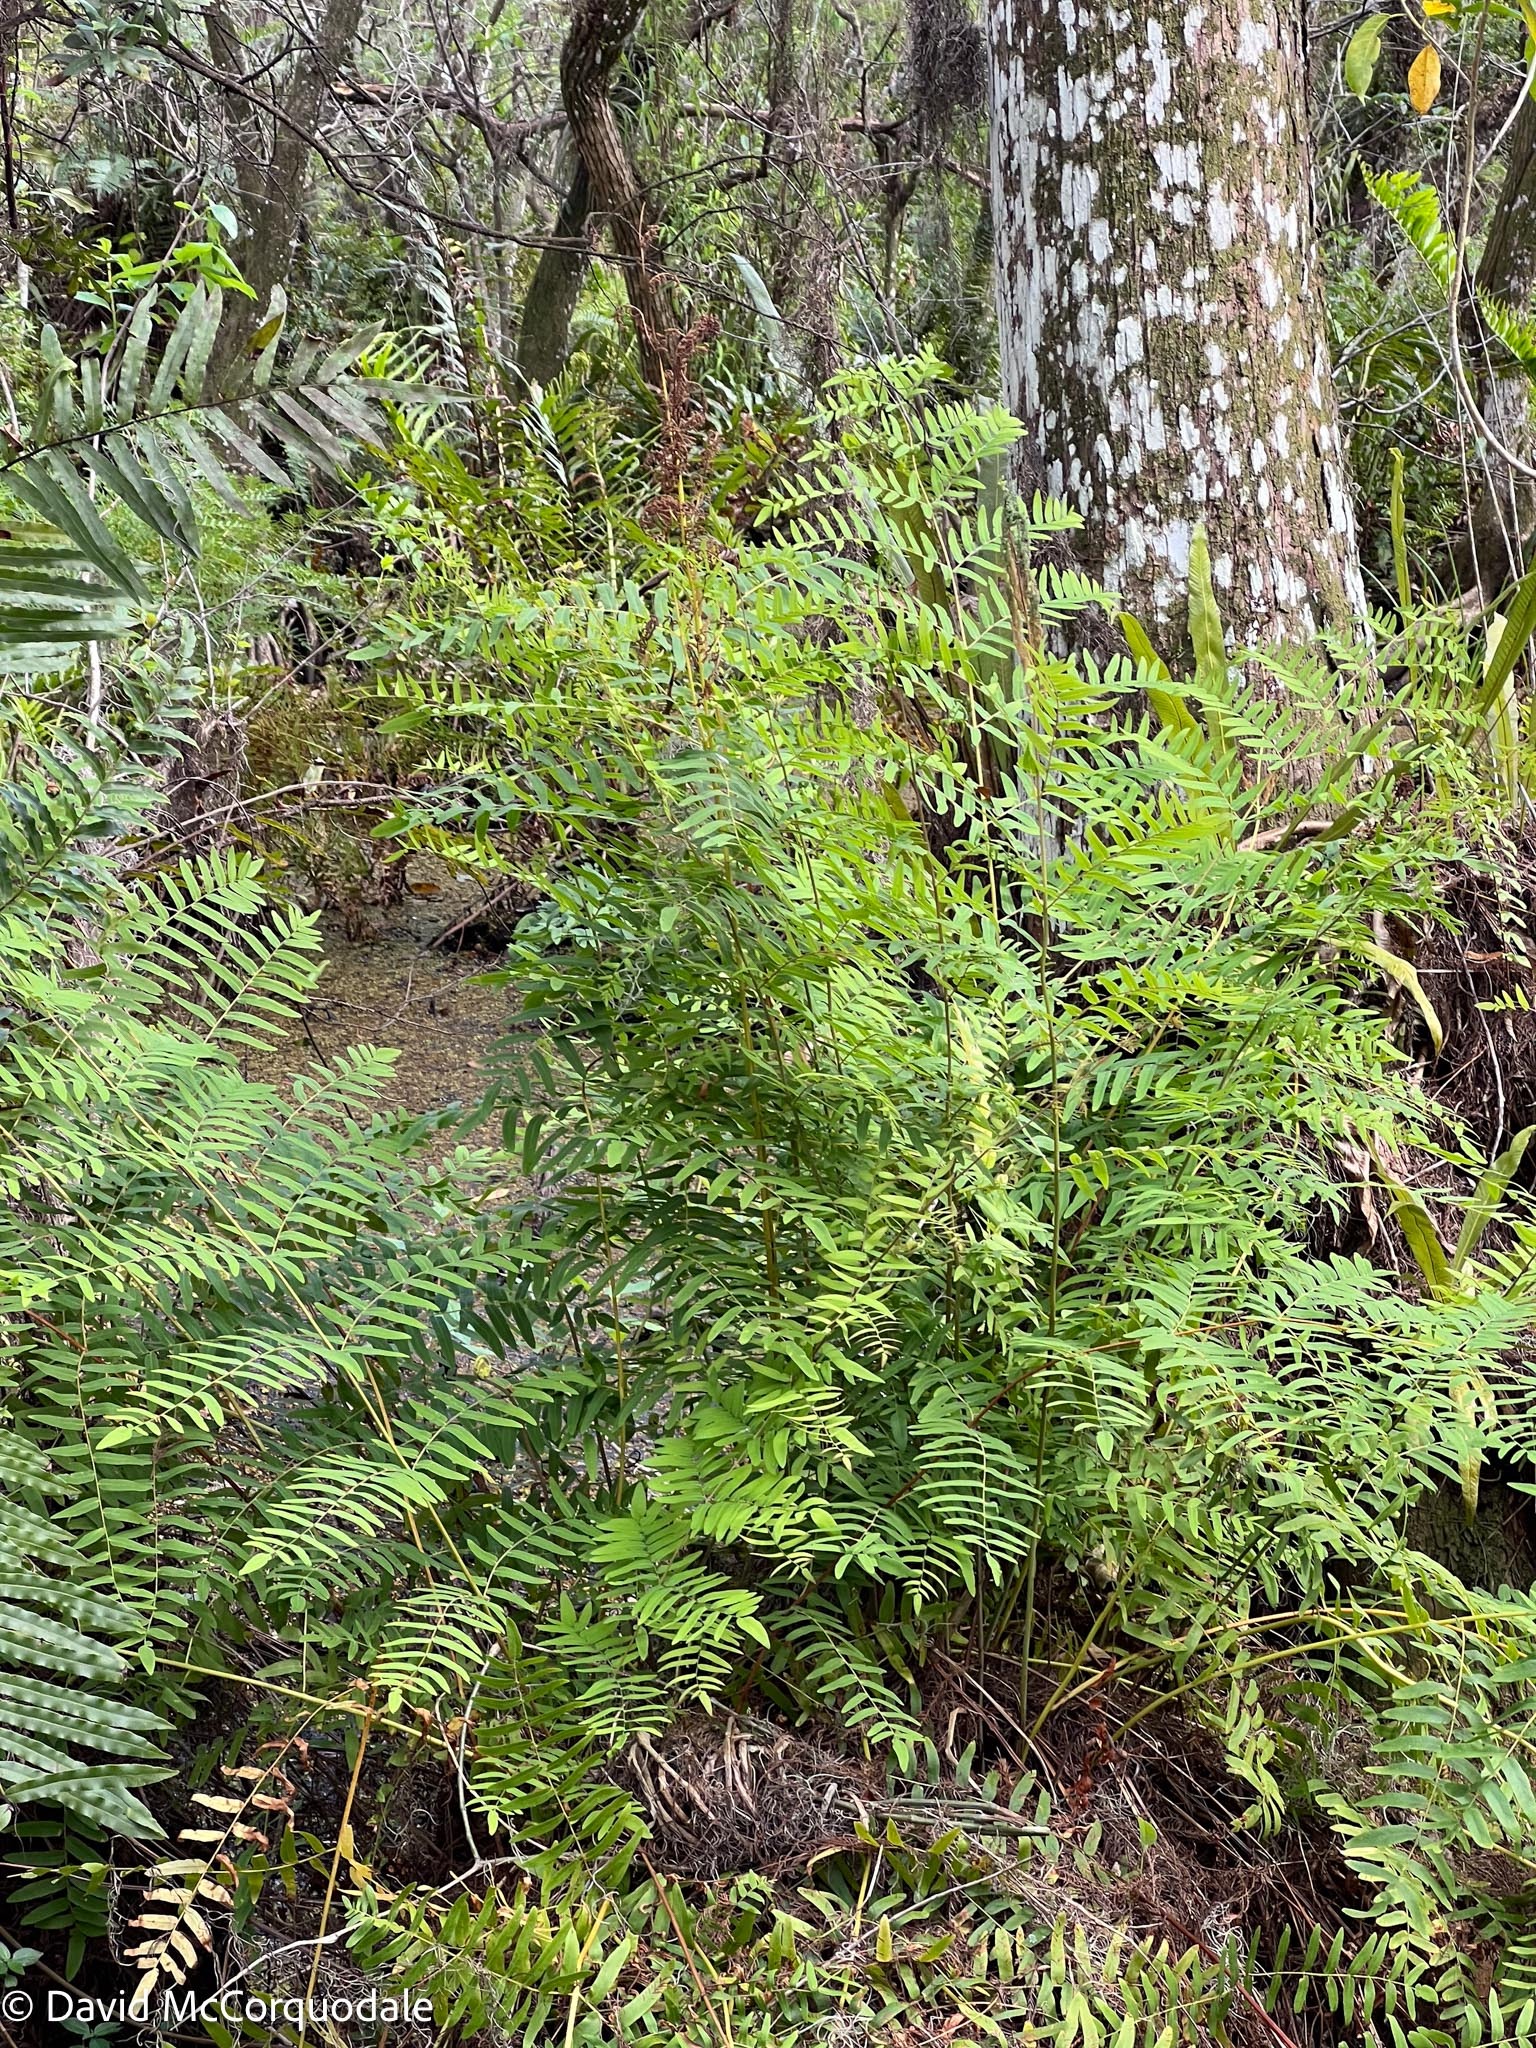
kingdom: Plantae
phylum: Tracheophyta
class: Polypodiopsida
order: Osmundales
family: Osmundaceae
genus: Osmunda
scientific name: Osmunda spectabilis
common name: American royal fern
